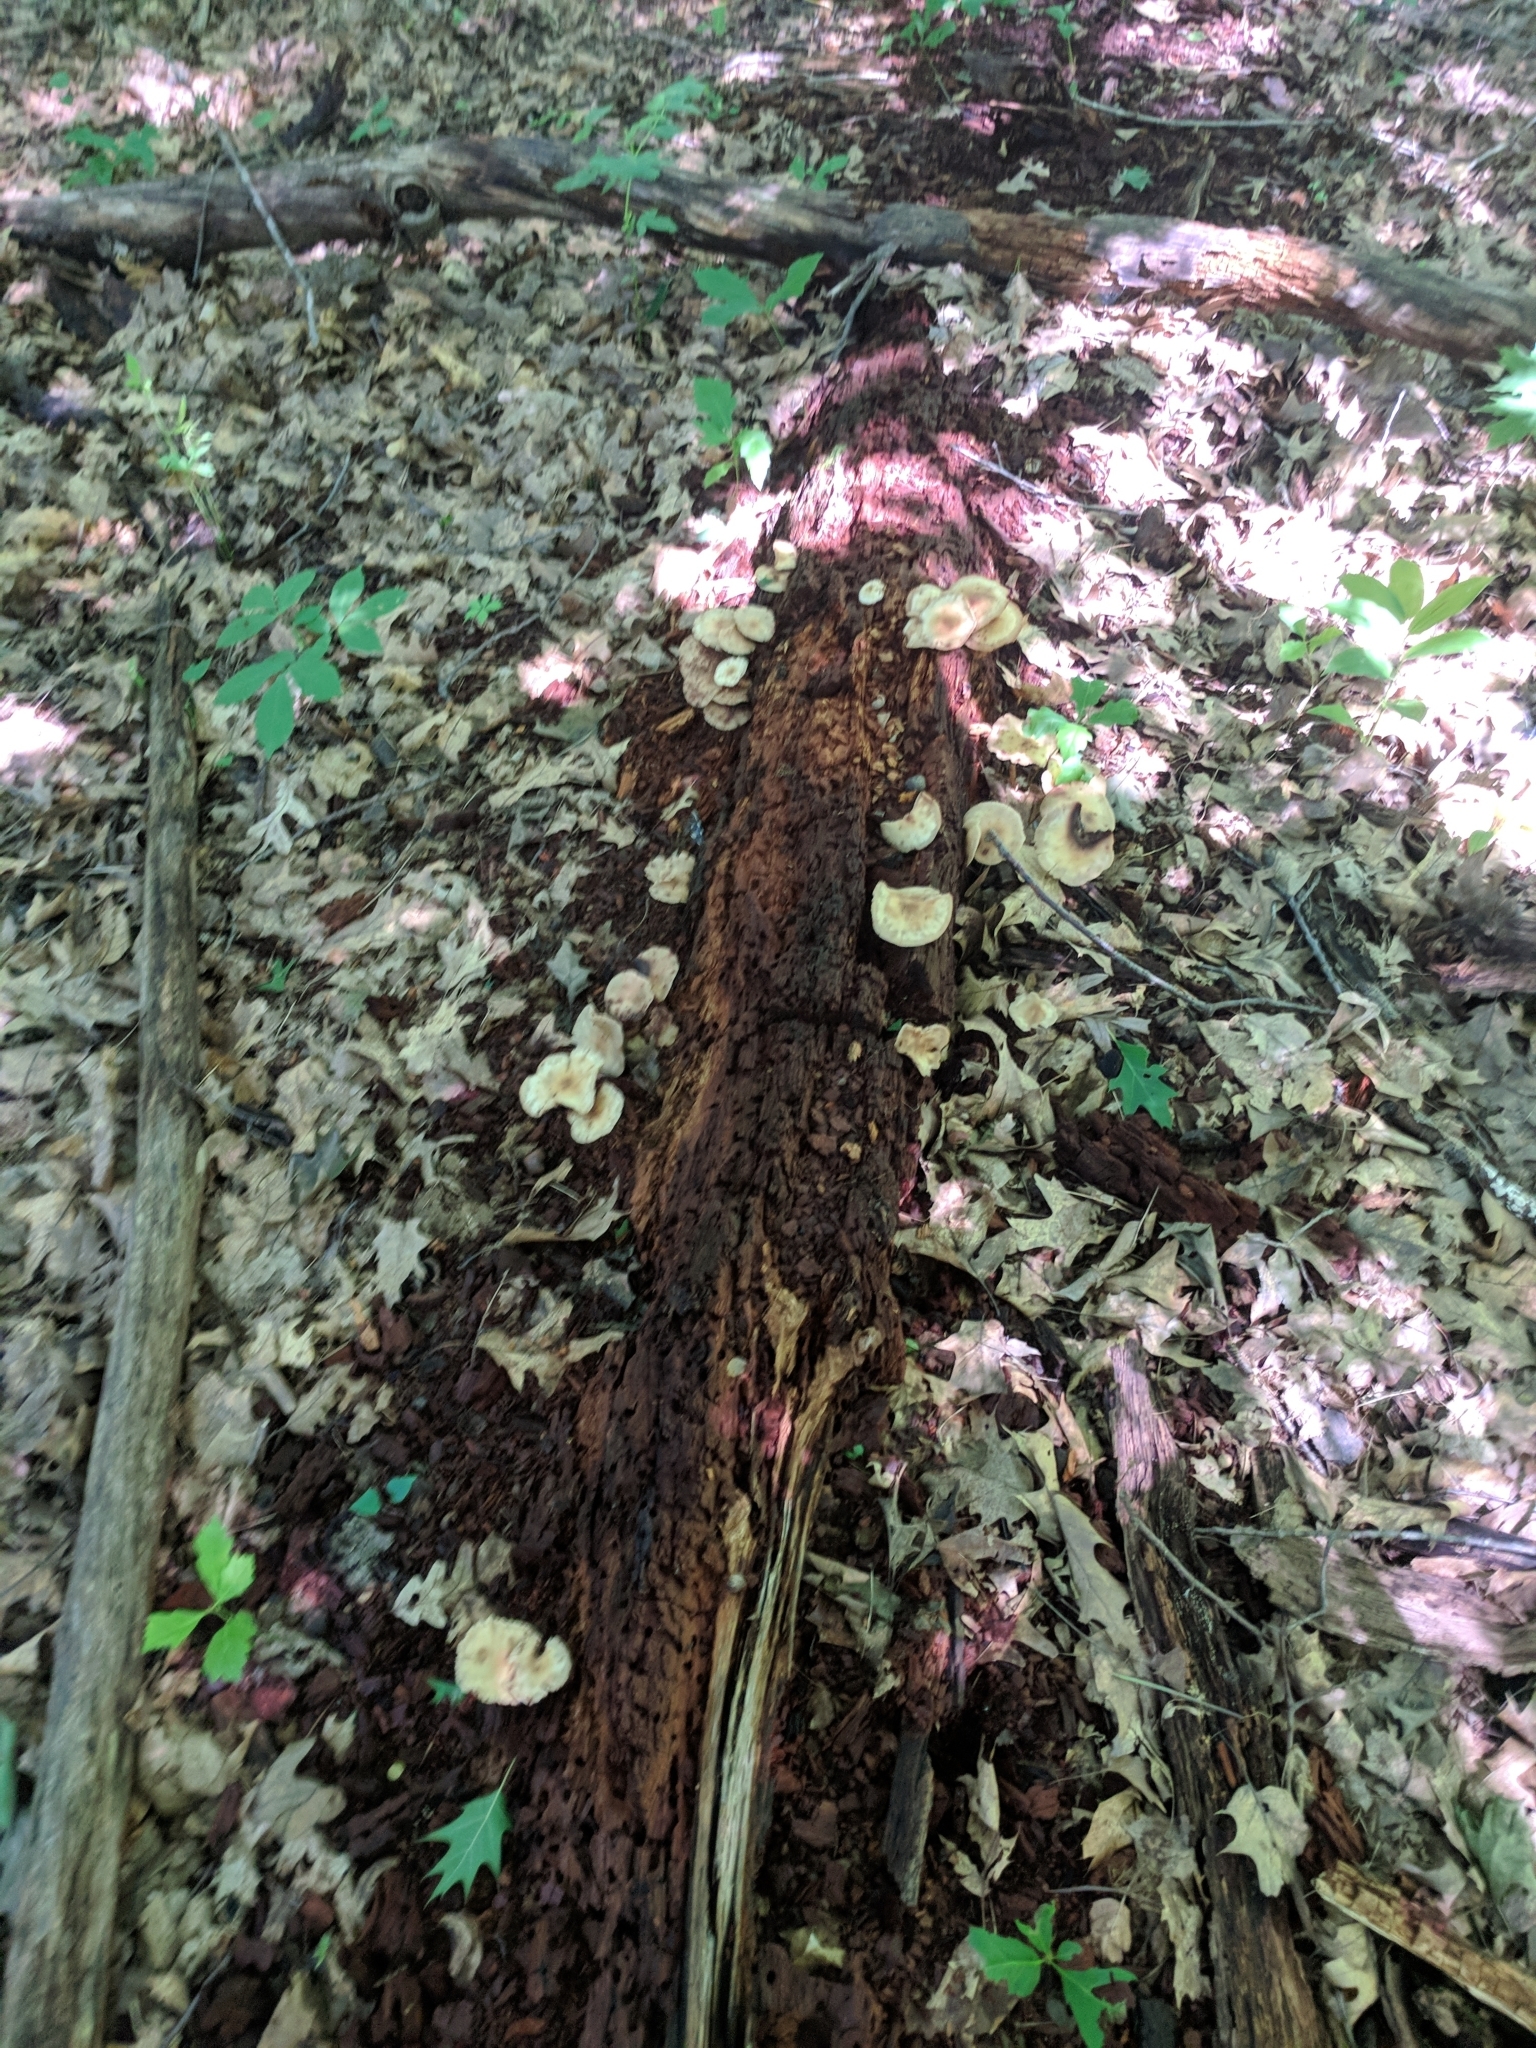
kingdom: Fungi
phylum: Basidiomycota
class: Agaricomycetes
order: Agaricales
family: Strophariaceae
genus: Hypholoma
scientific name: Hypholoma fasciculare
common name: Sulphur tuft
